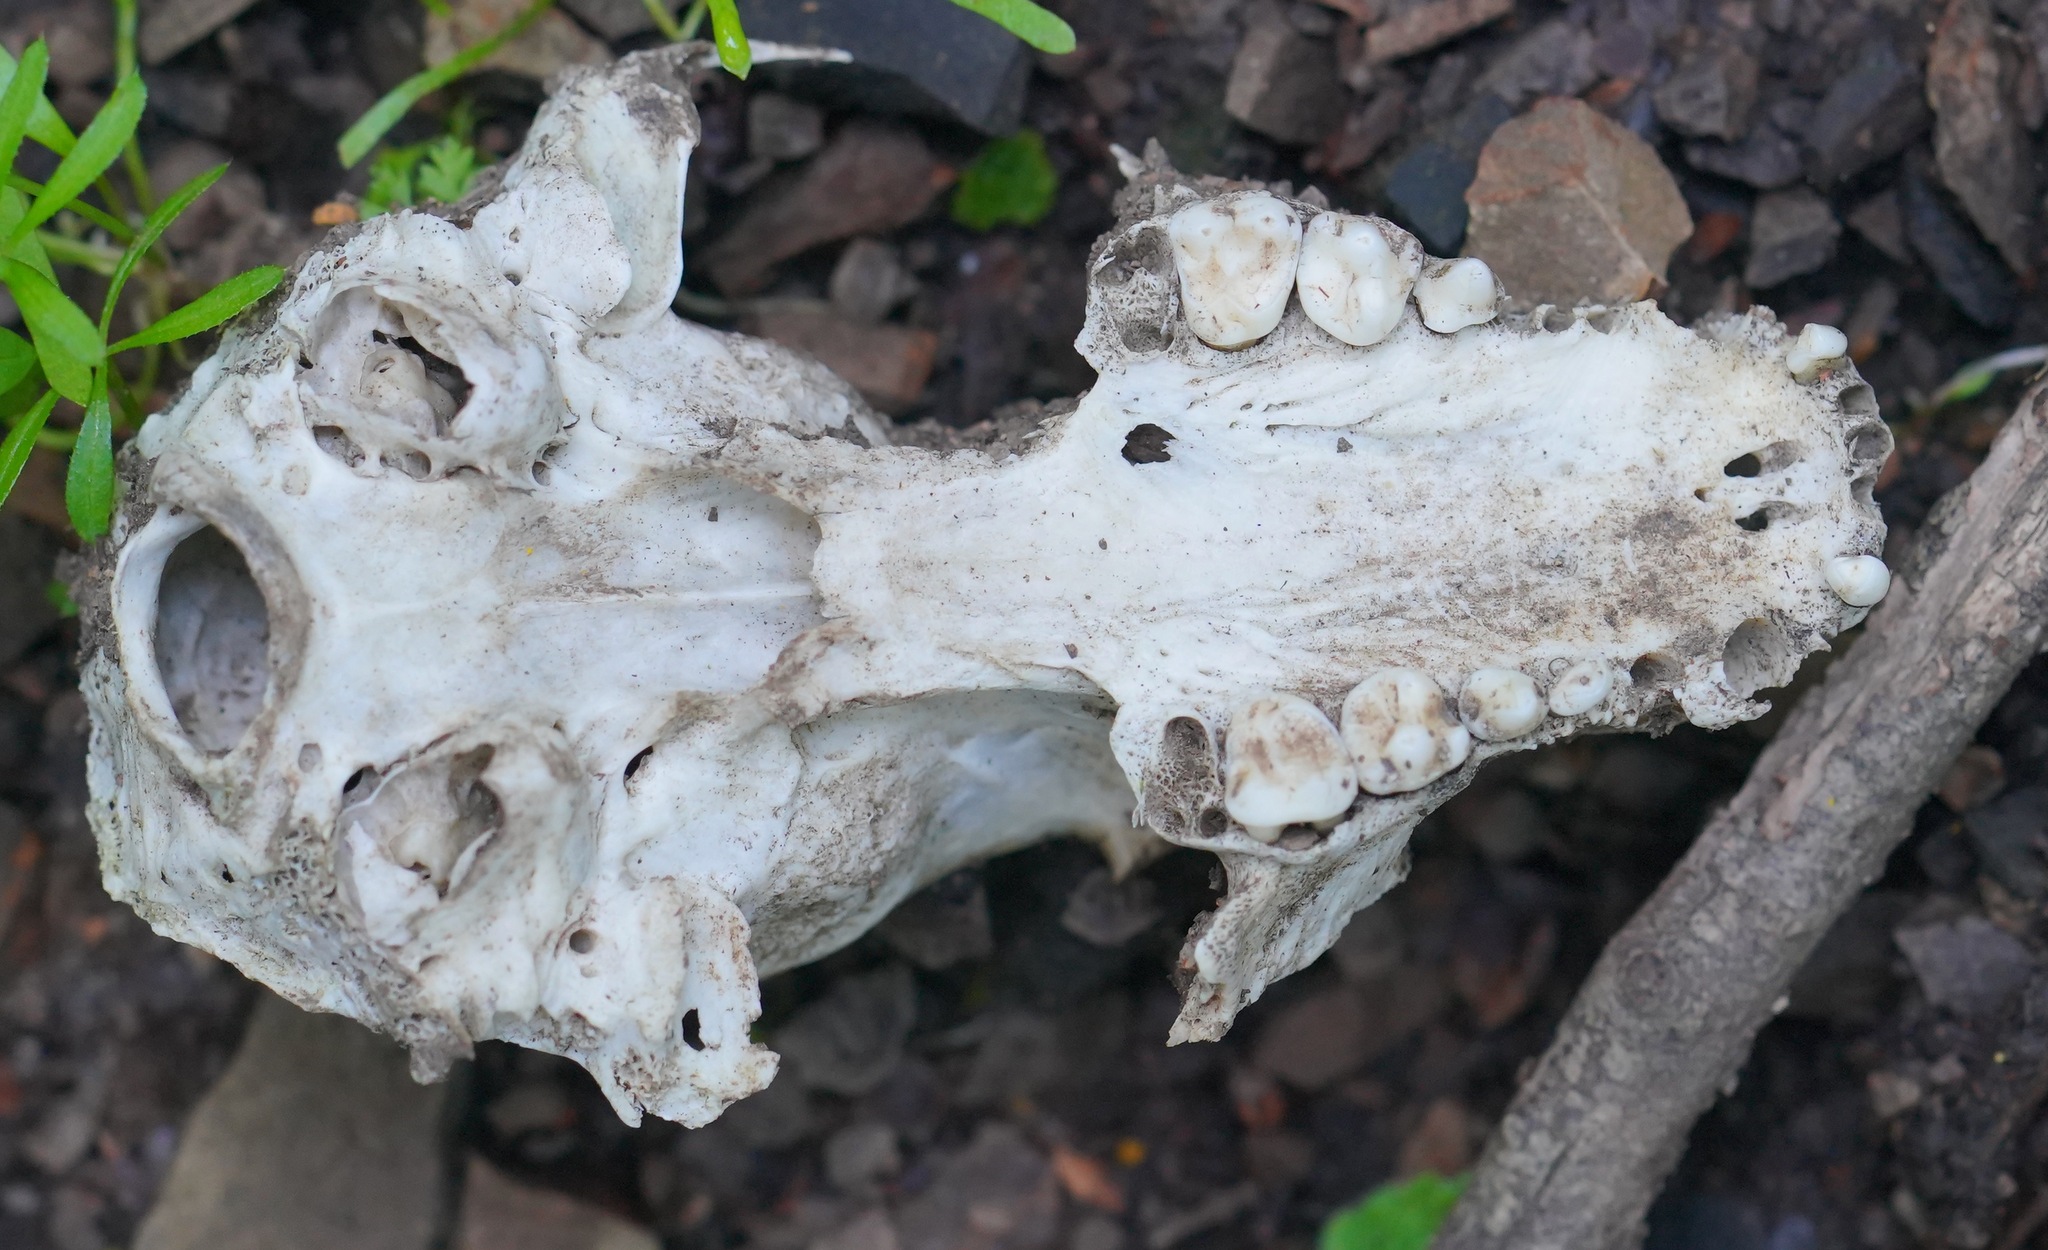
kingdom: Animalia
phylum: Chordata
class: Mammalia
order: Carnivora
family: Procyonidae
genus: Procyon
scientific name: Procyon lotor
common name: Raccoon
